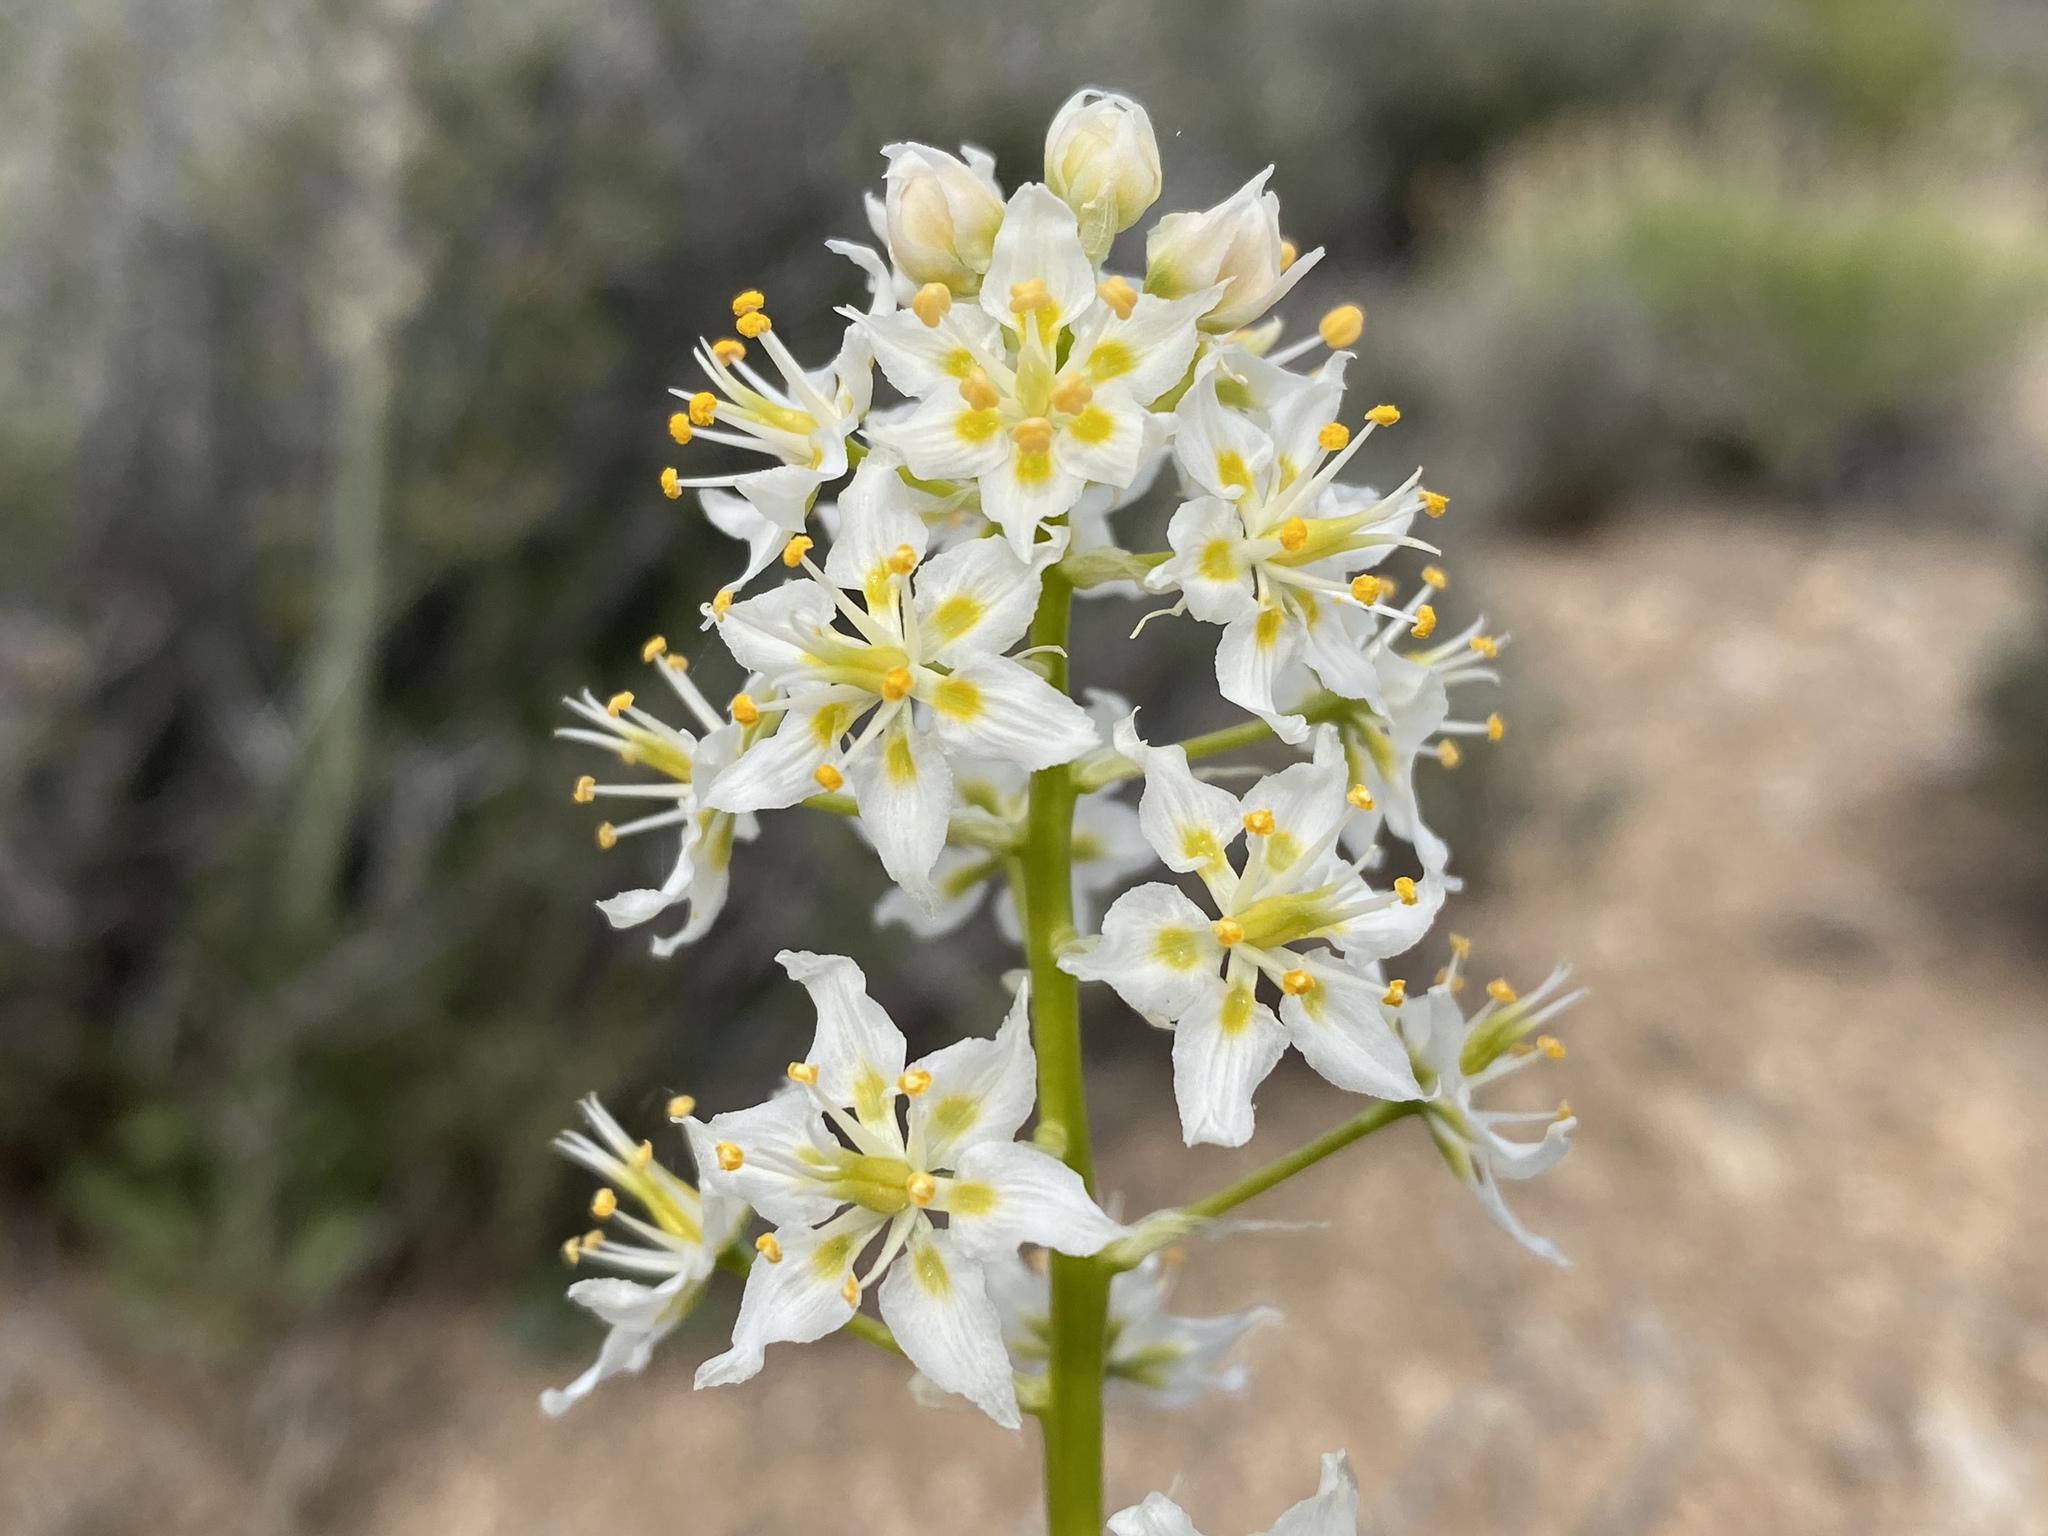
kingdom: Plantae
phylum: Tracheophyta
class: Liliopsida
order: Liliales
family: Melanthiaceae
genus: Toxicoscordion
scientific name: Toxicoscordion venenosum
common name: Meadow death camas
